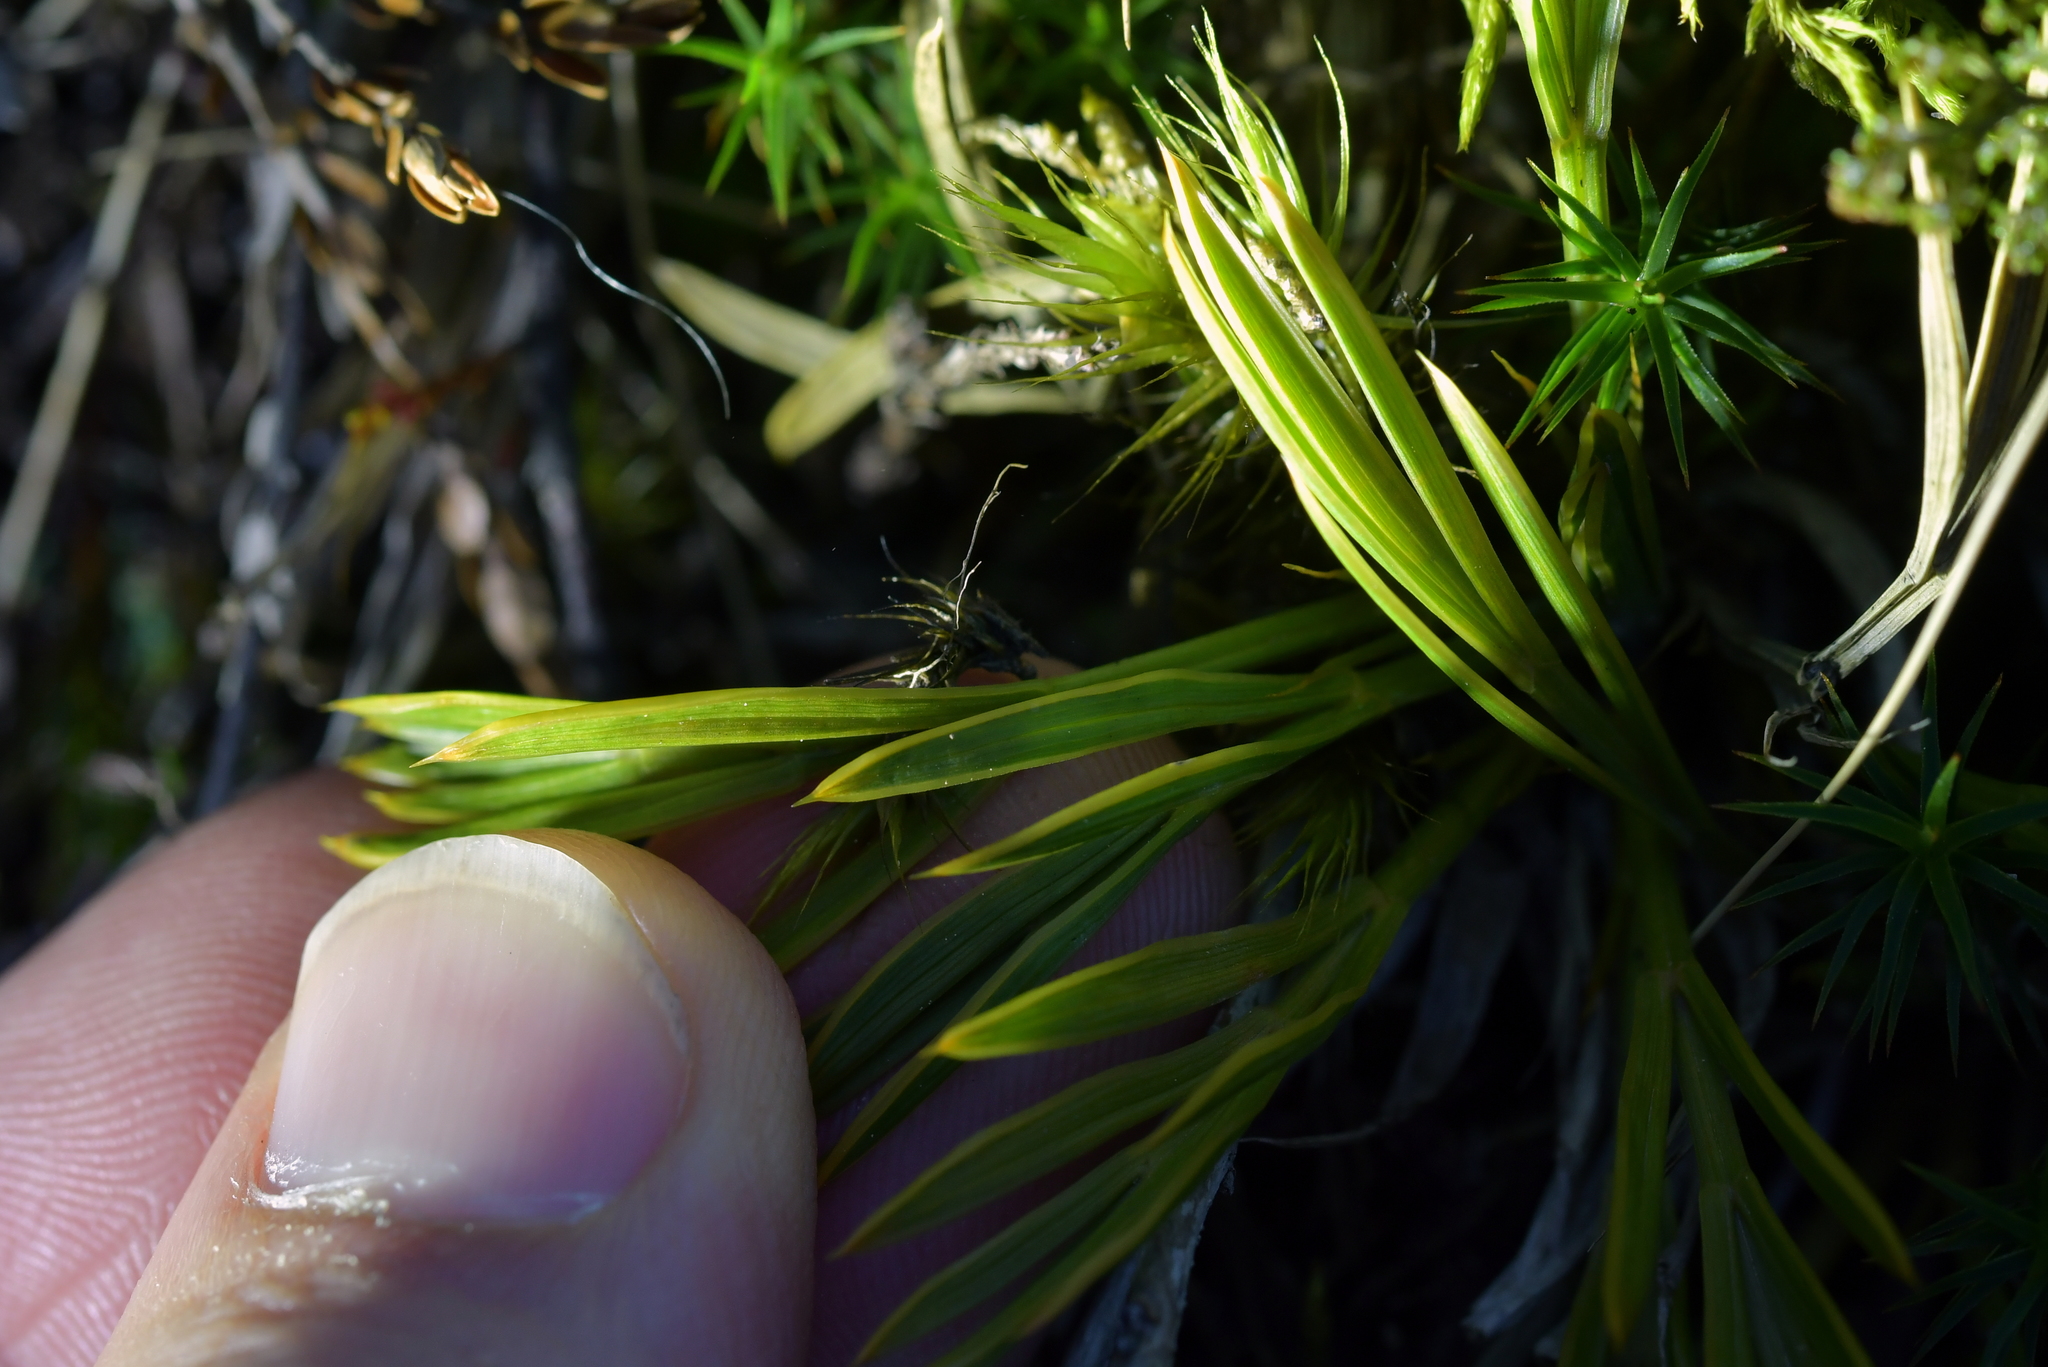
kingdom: Plantae
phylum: Tracheophyta
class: Magnoliopsida
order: Apiales
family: Apiaceae
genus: Aciphylla
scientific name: Aciphylla monroi
